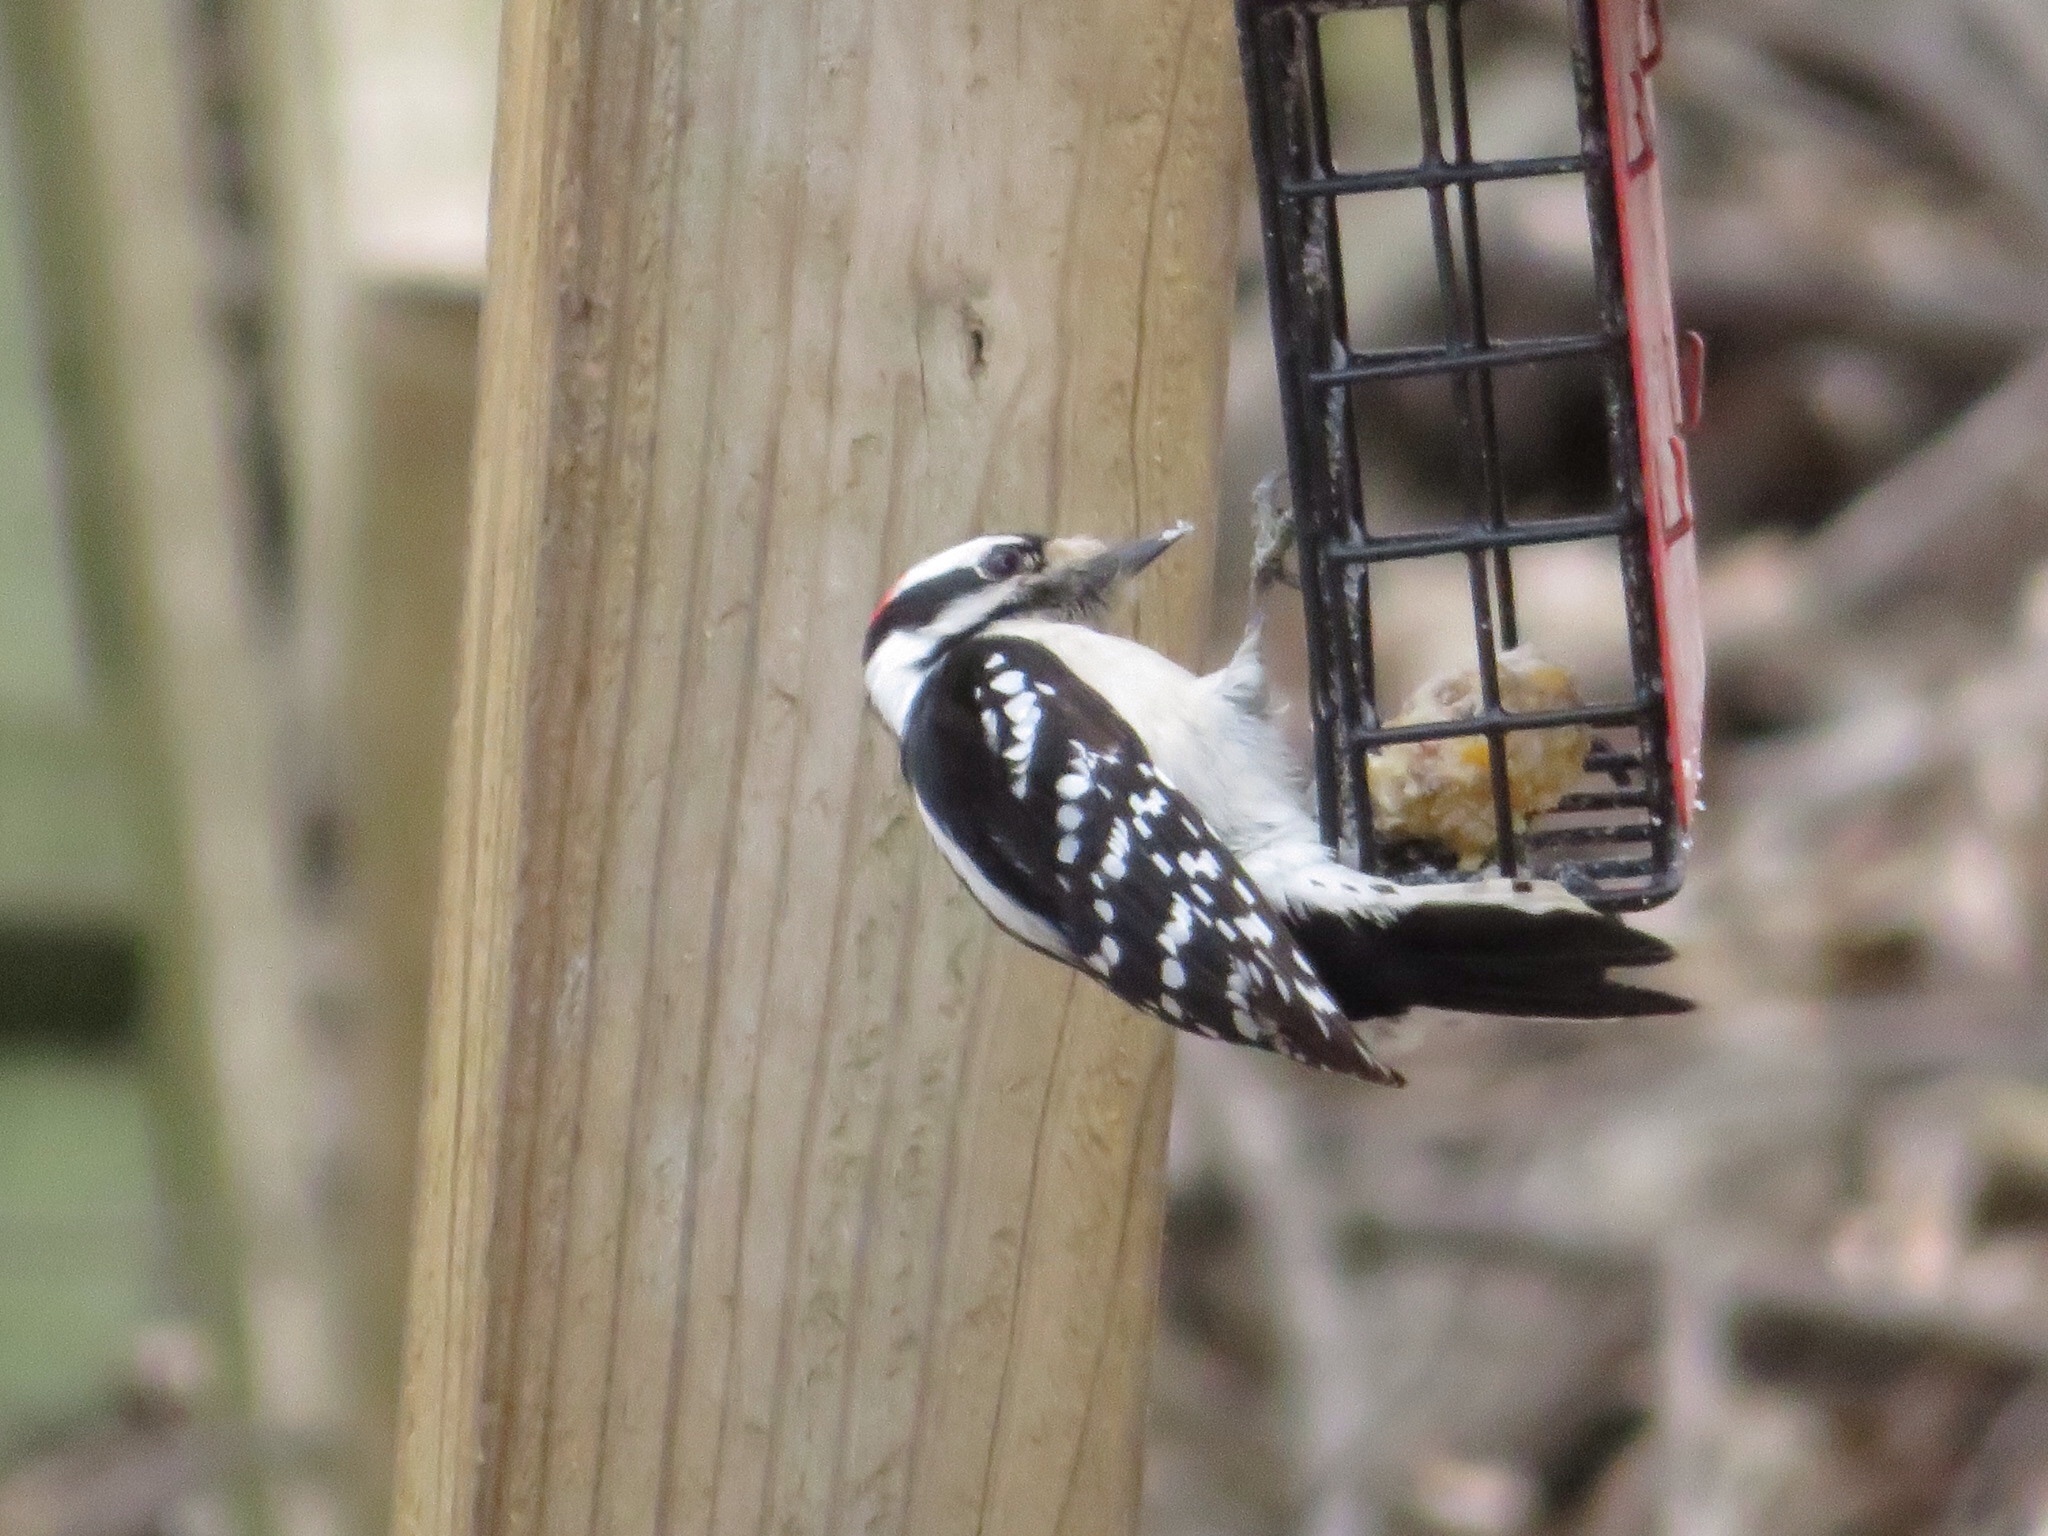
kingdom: Animalia
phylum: Chordata
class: Aves
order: Piciformes
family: Picidae
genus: Dryobates
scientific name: Dryobates pubescens
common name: Downy woodpecker
